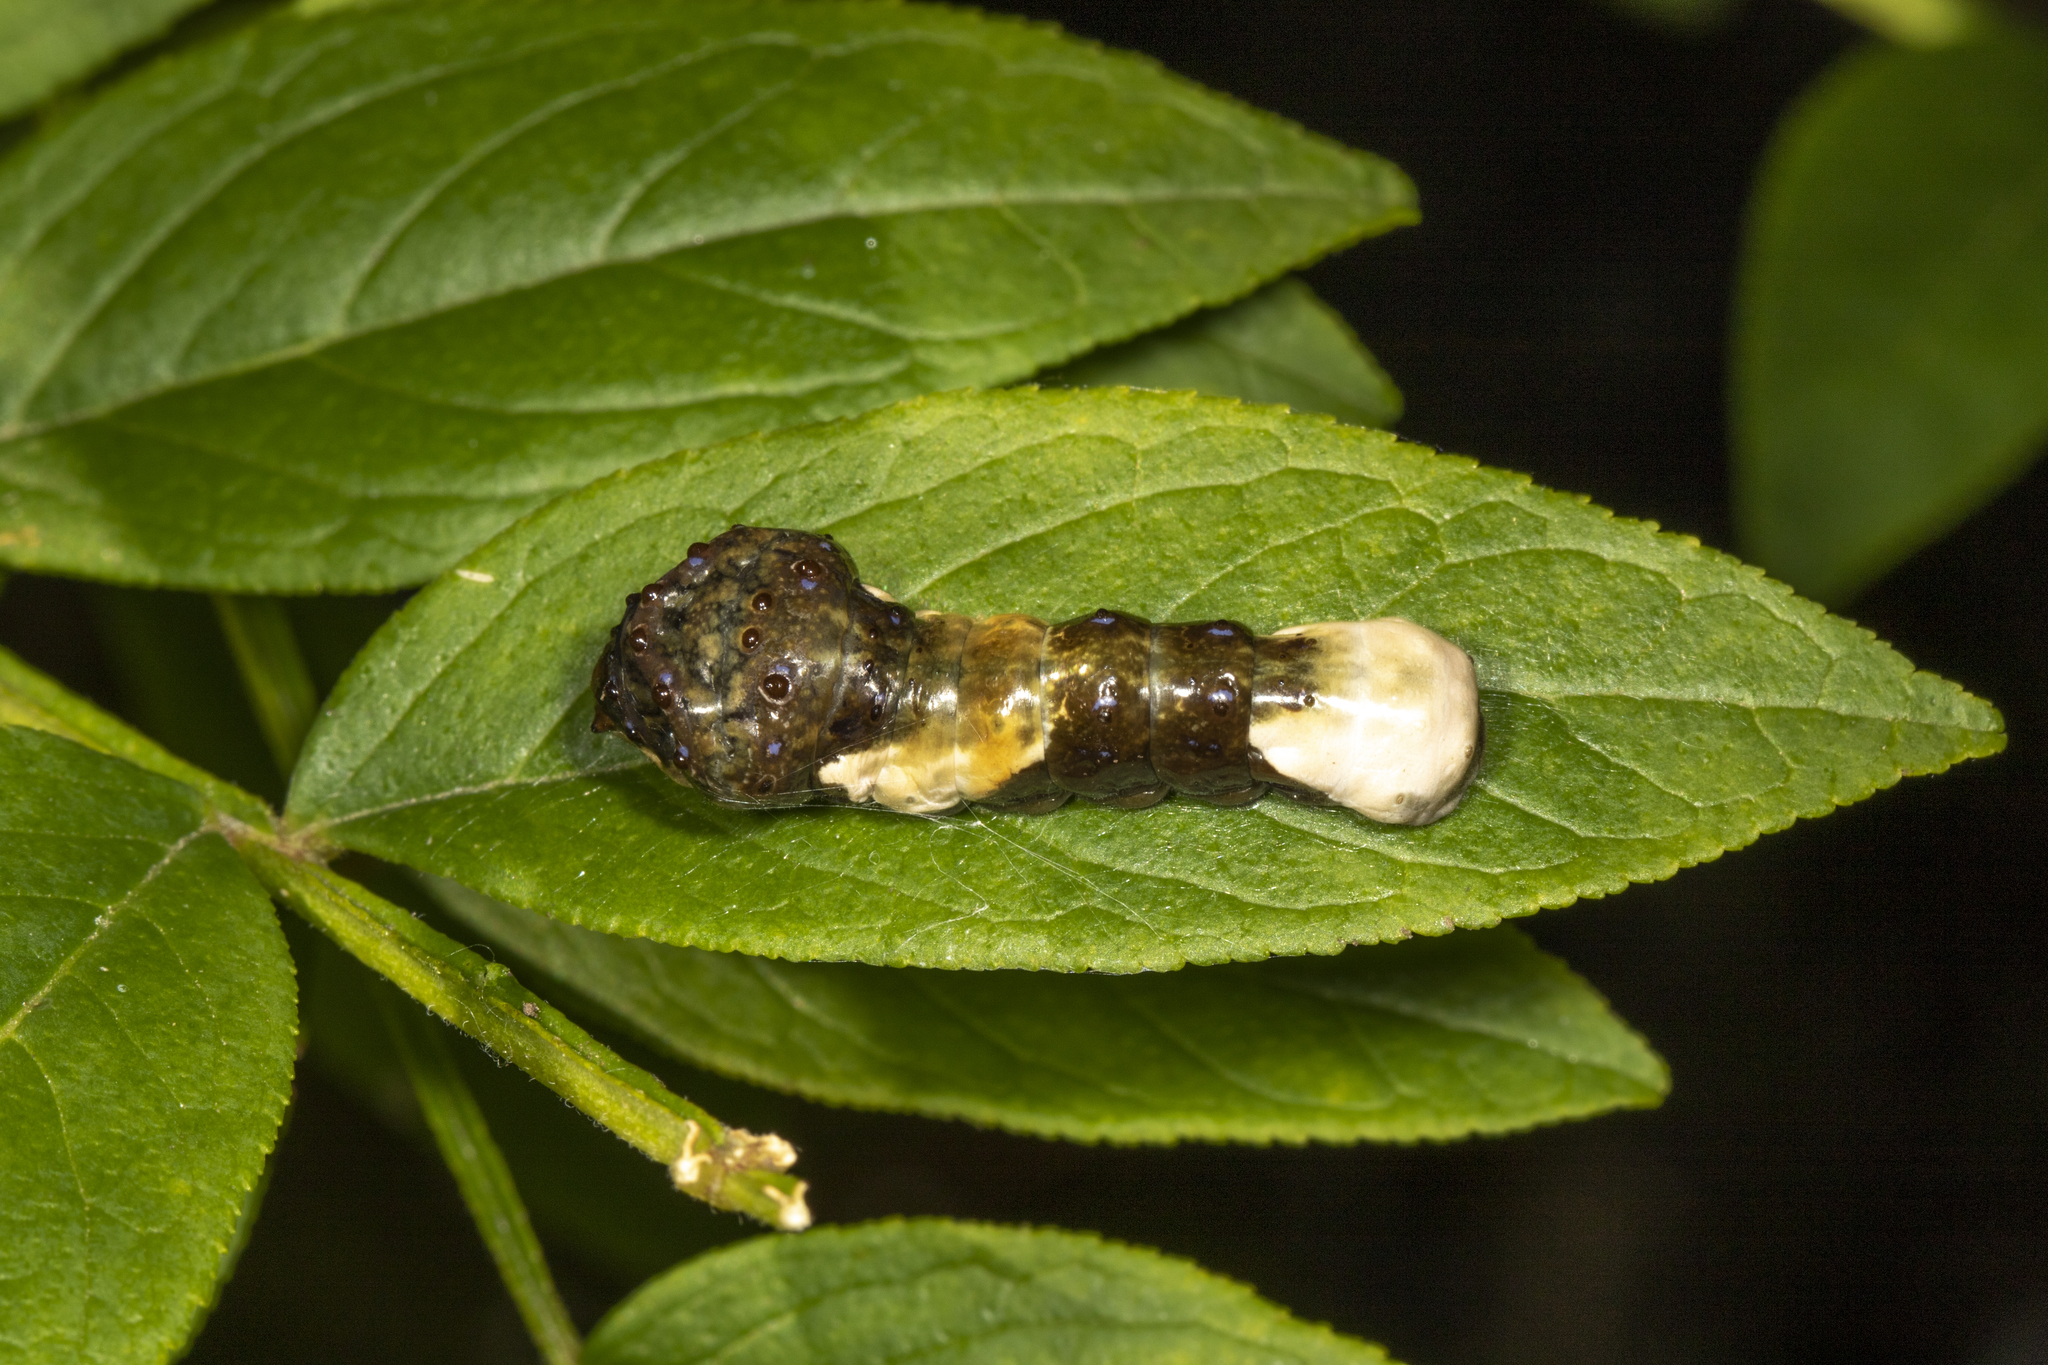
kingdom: Animalia
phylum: Arthropoda
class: Insecta
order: Lepidoptera
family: Papilionidae
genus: Papilio
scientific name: Papilio cresphontes
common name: Giant swallowtail
